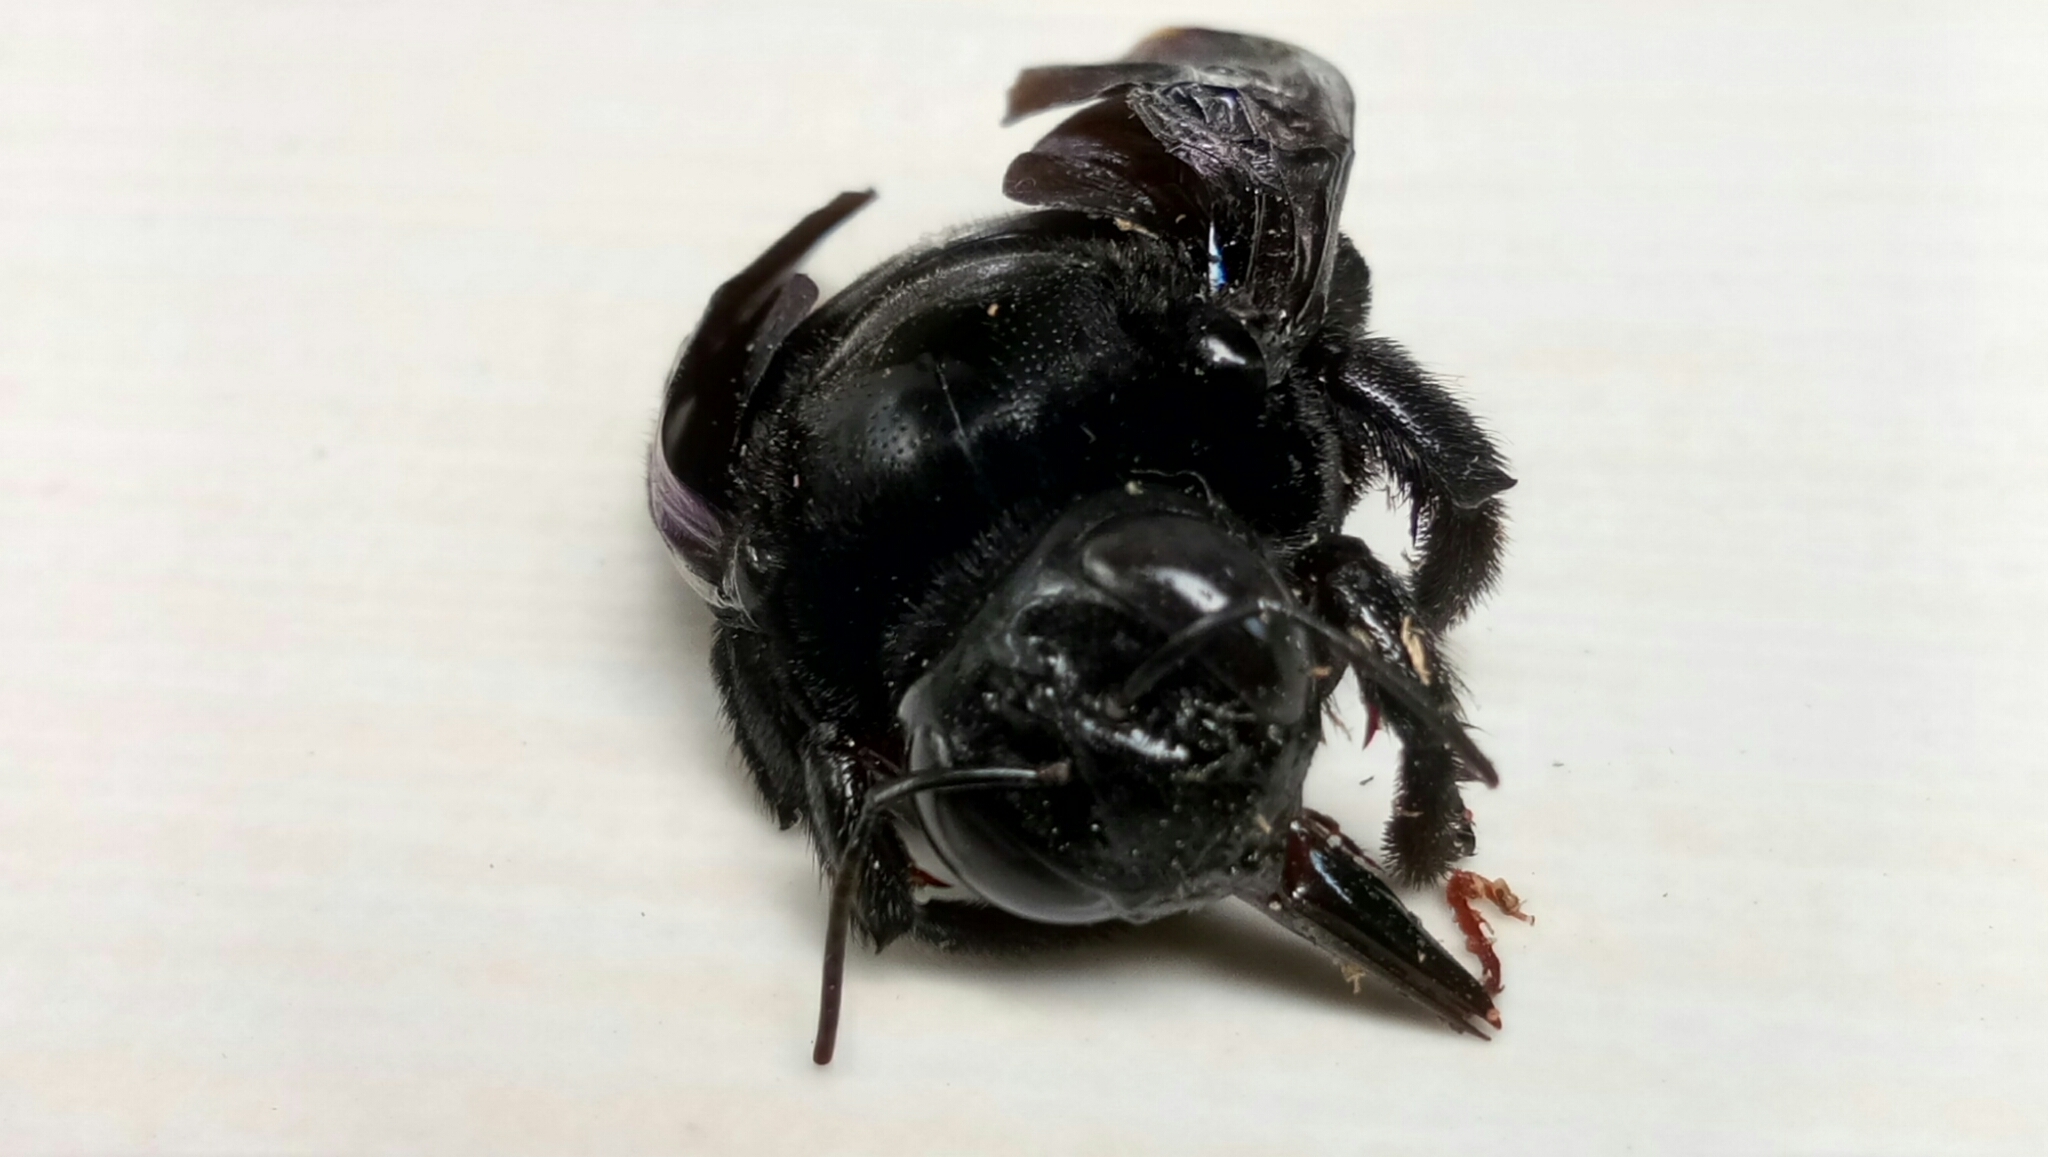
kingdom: Animalia
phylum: Arthropoda
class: Insecta
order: Hymenoptera
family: Apidae
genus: Xylocopa
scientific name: Xylocopa latipes
